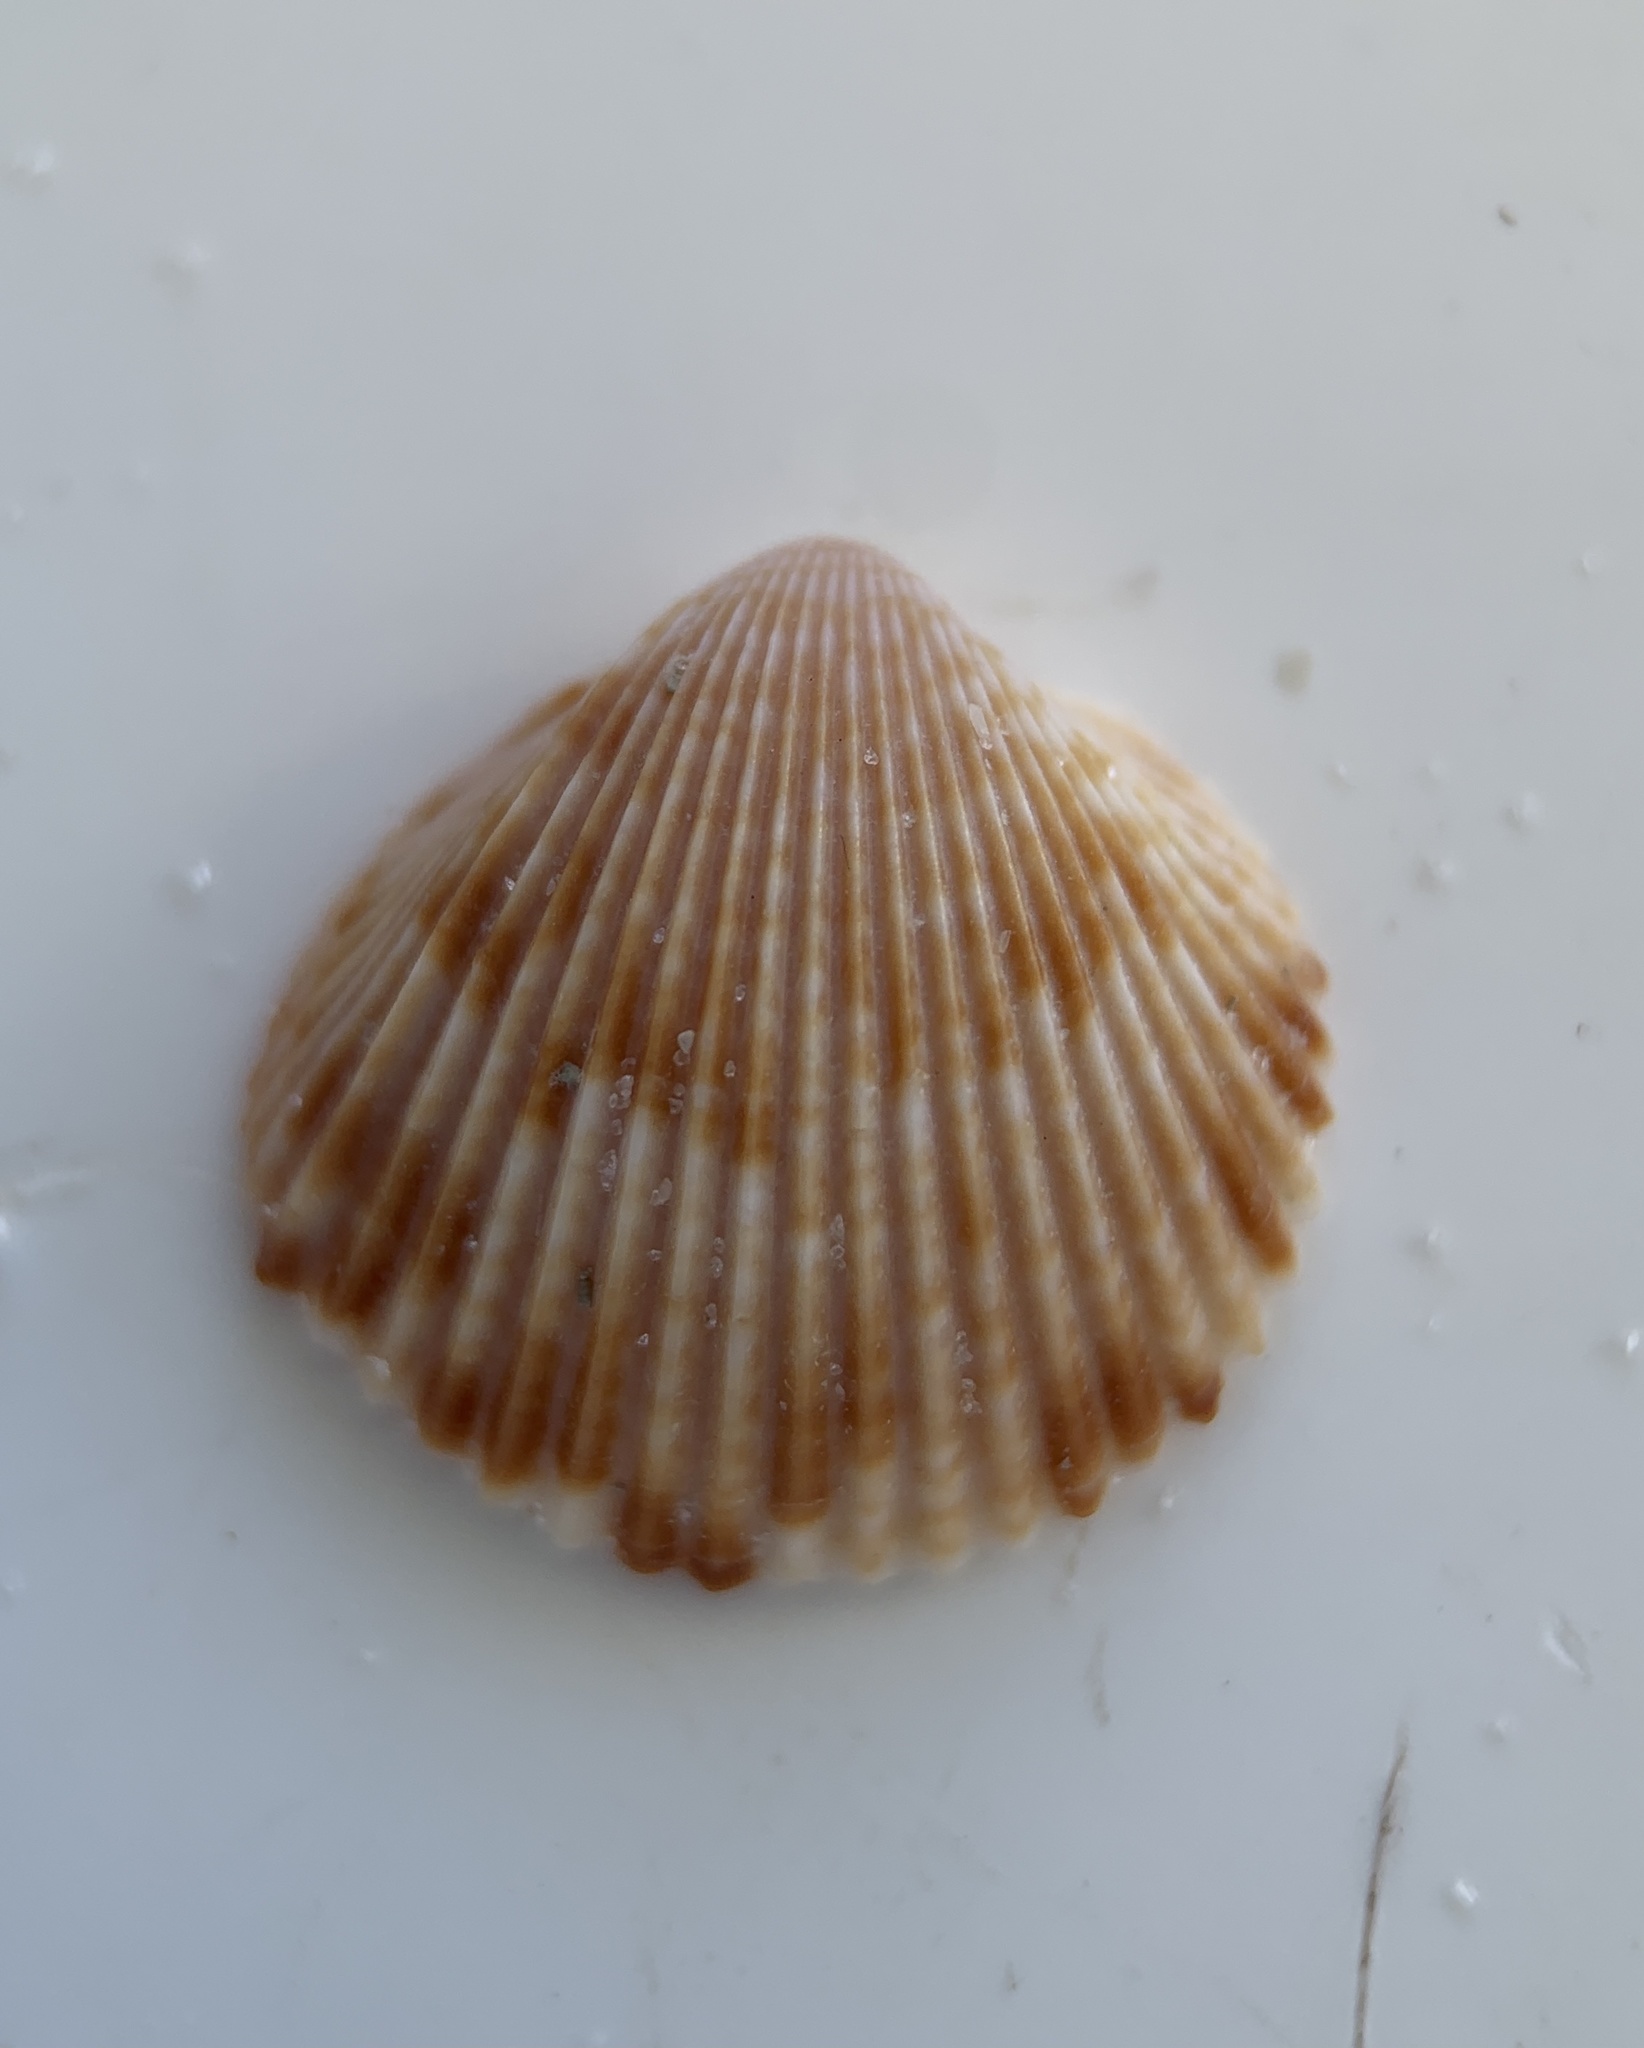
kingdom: Animalia
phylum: Mollusca
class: Bivalvia
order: Cardiida
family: Cardiidae
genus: Dinocardium
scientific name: Dinocardium robustum
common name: Atlantic giant cockle
